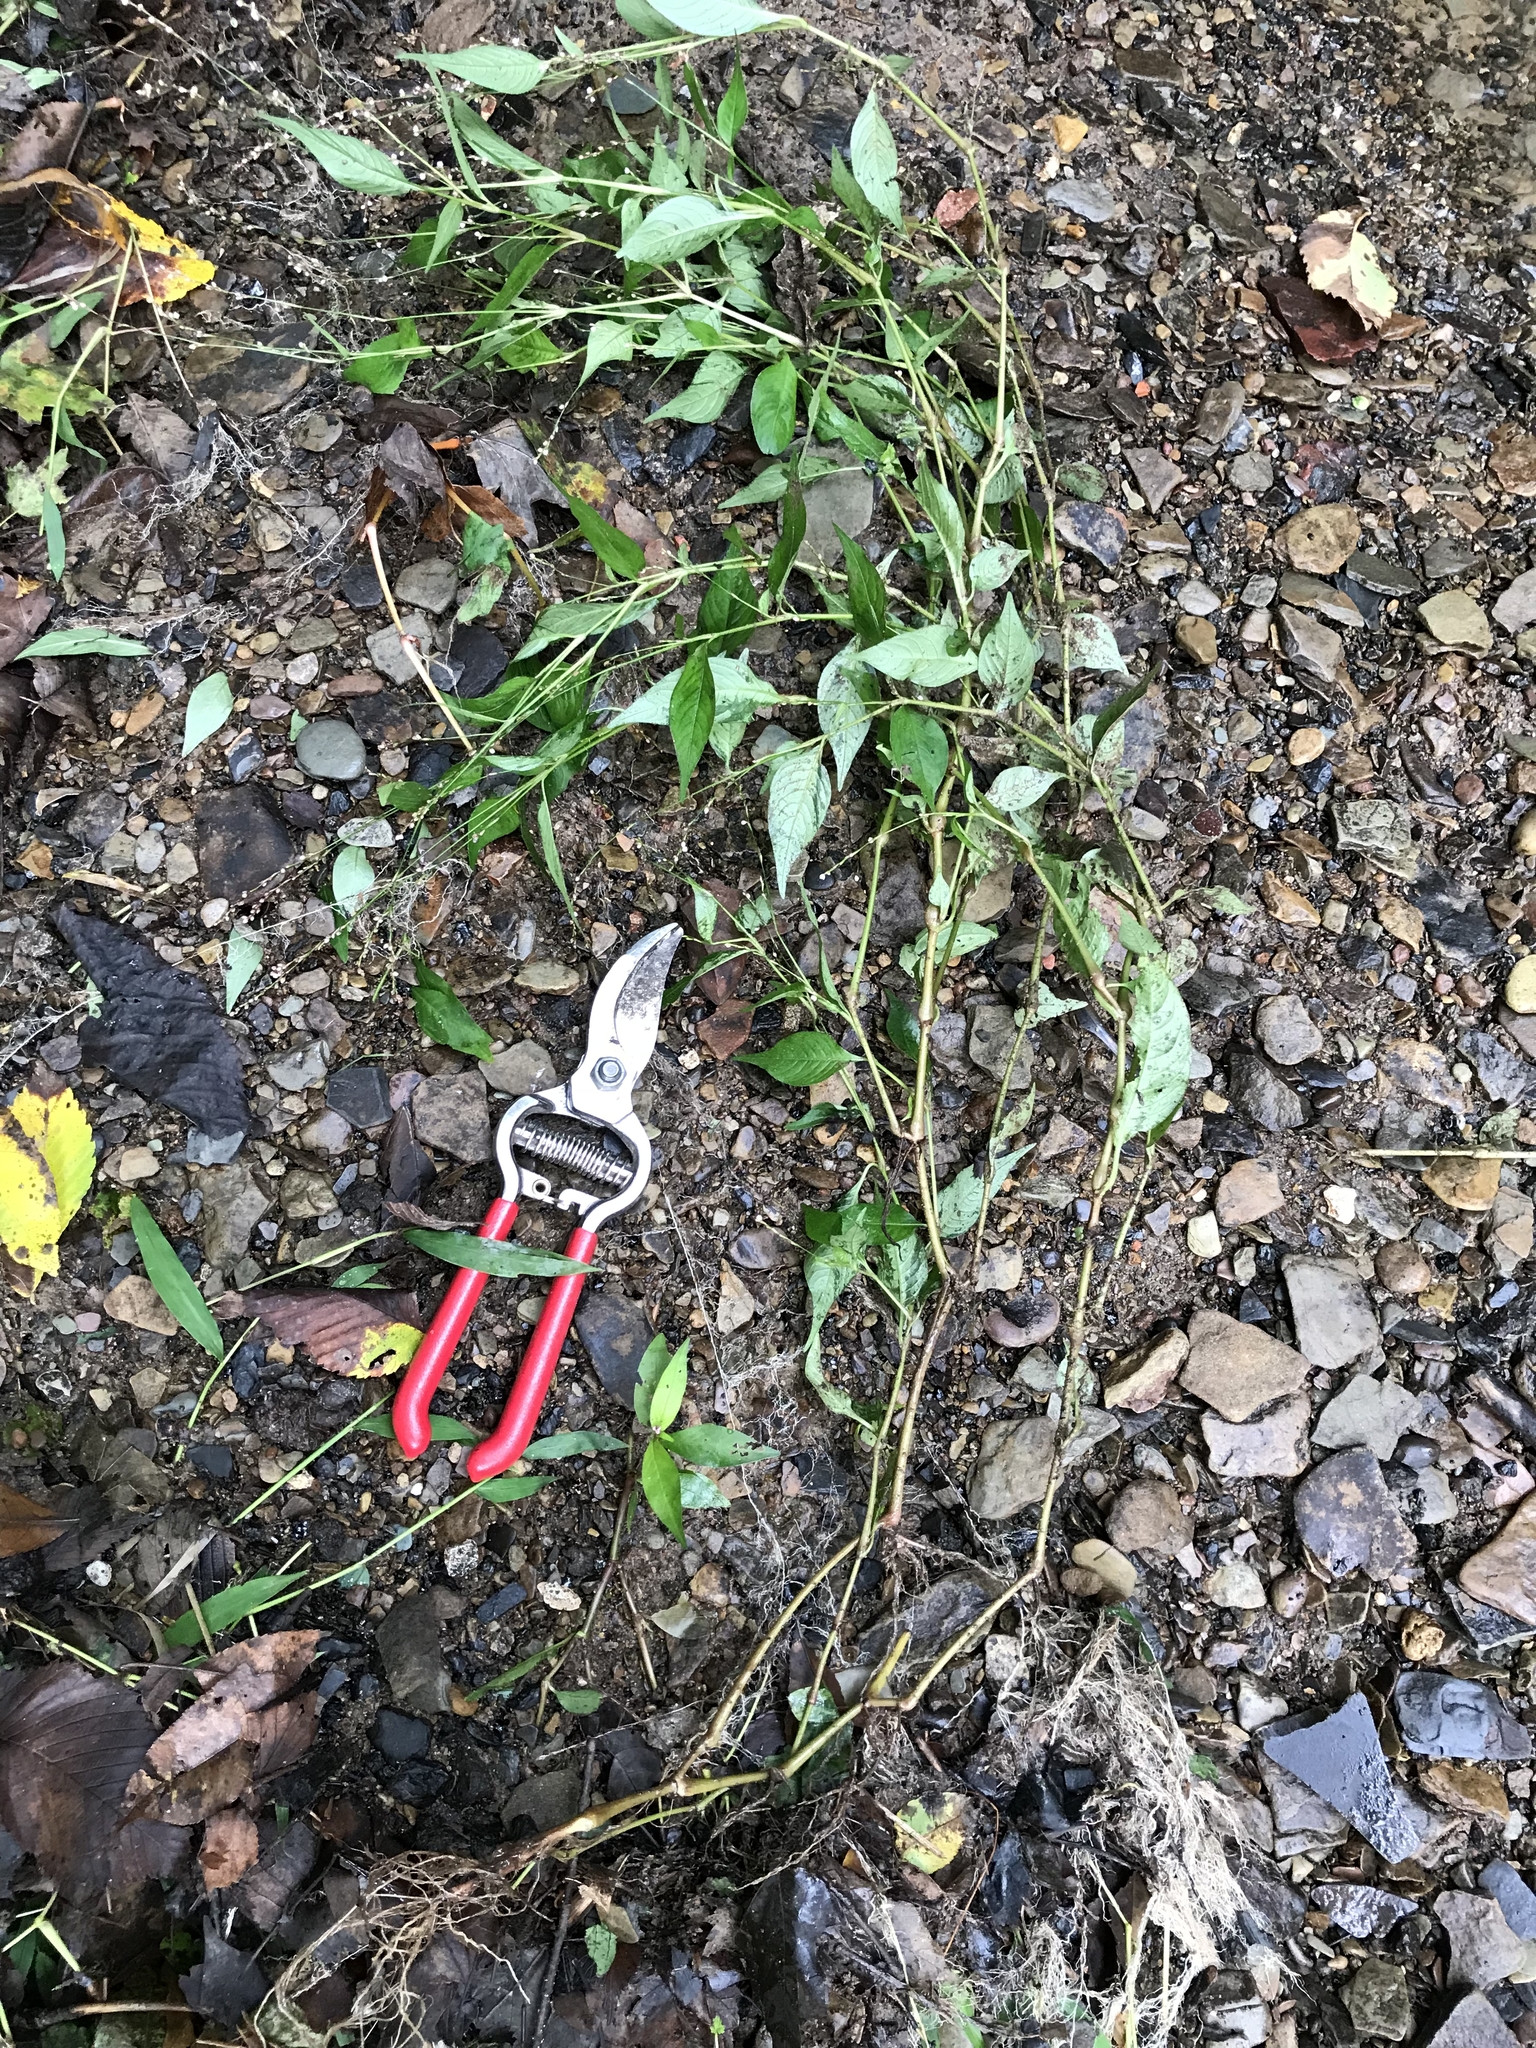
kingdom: Plantae
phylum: Tracheophyta
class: Magnoliopsida
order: Caryophyllales
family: Polygonaceae
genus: Persicaria
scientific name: Persicaria maculosa
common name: Redshank
